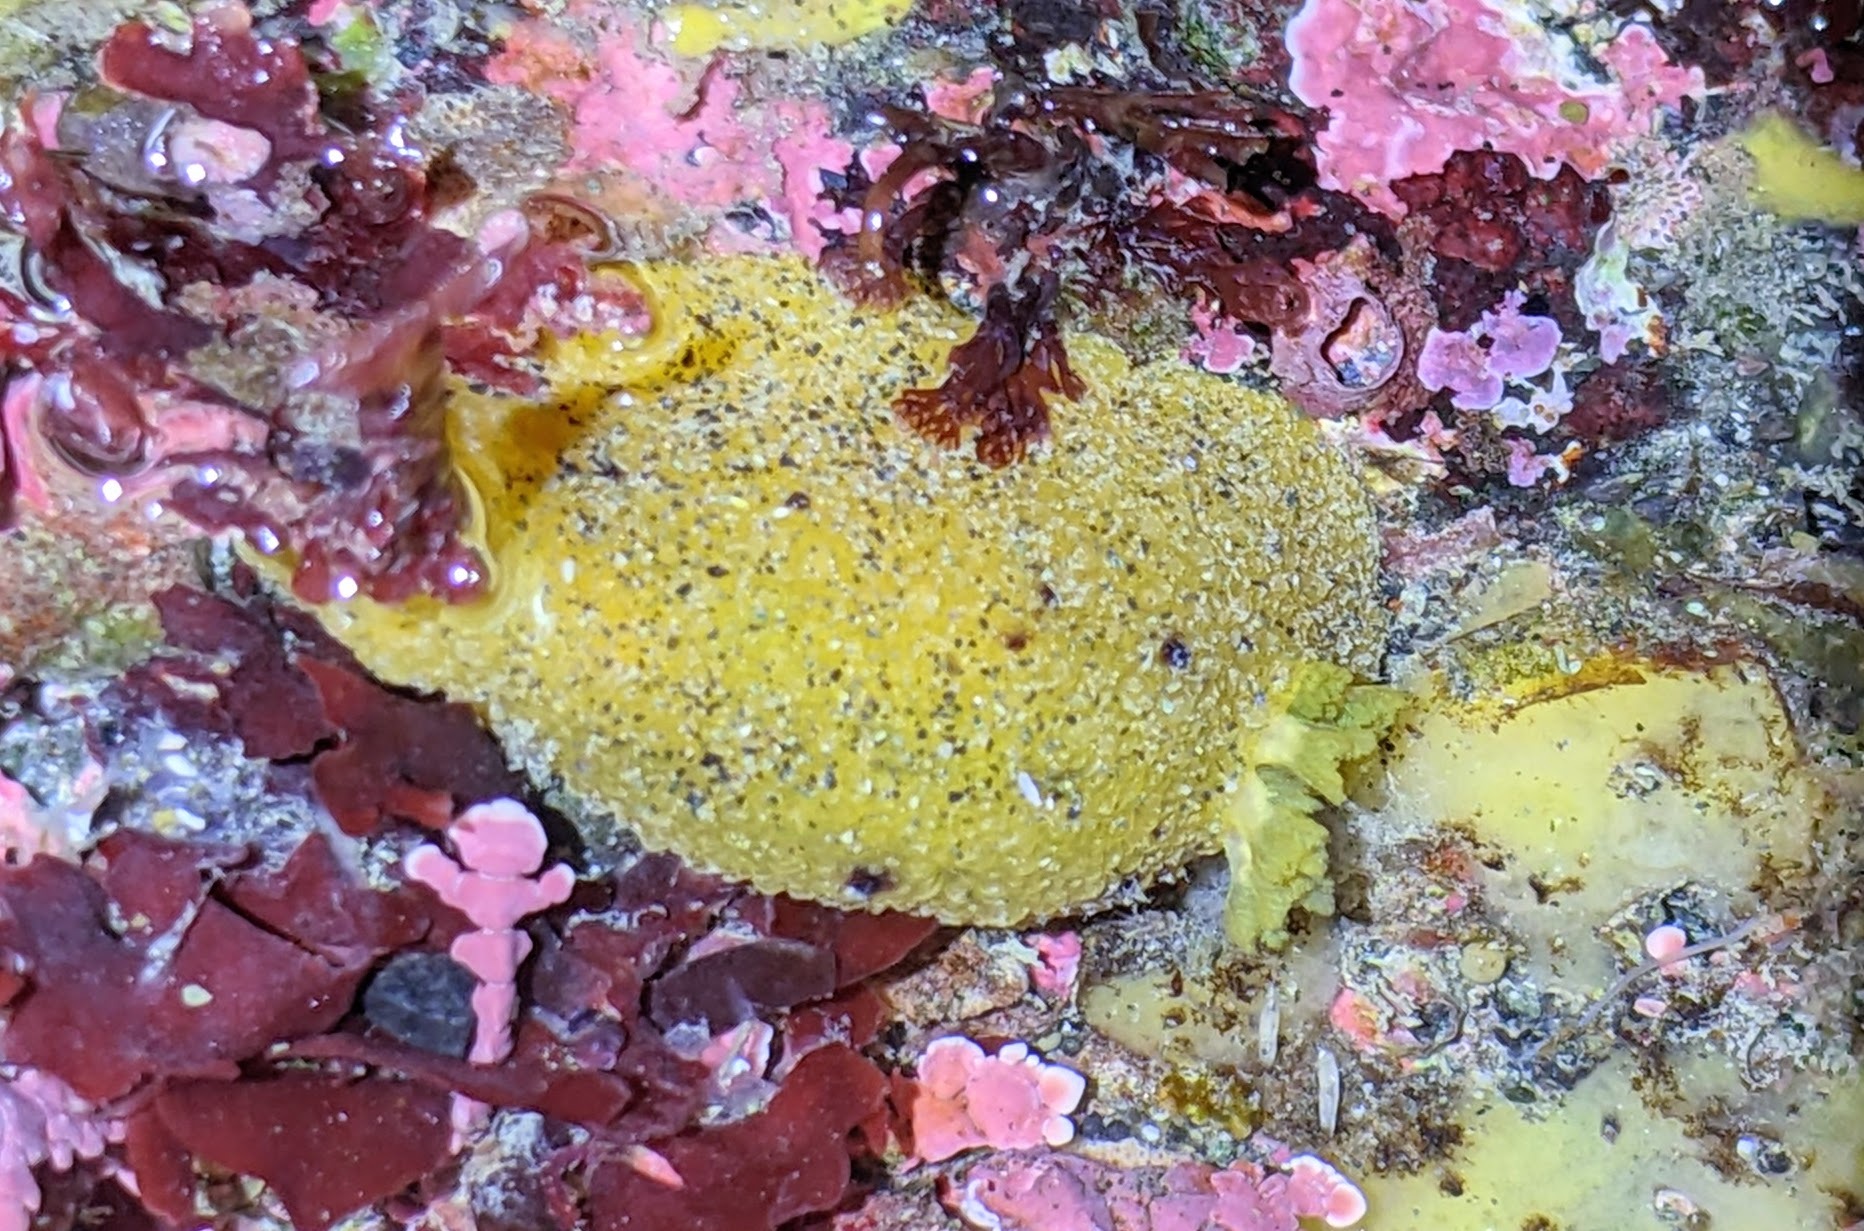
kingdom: Animalia
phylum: Mollusca
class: Gastropoda
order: Nudibranchia
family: Dorididae
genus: Doris
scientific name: Doris montereyensis
